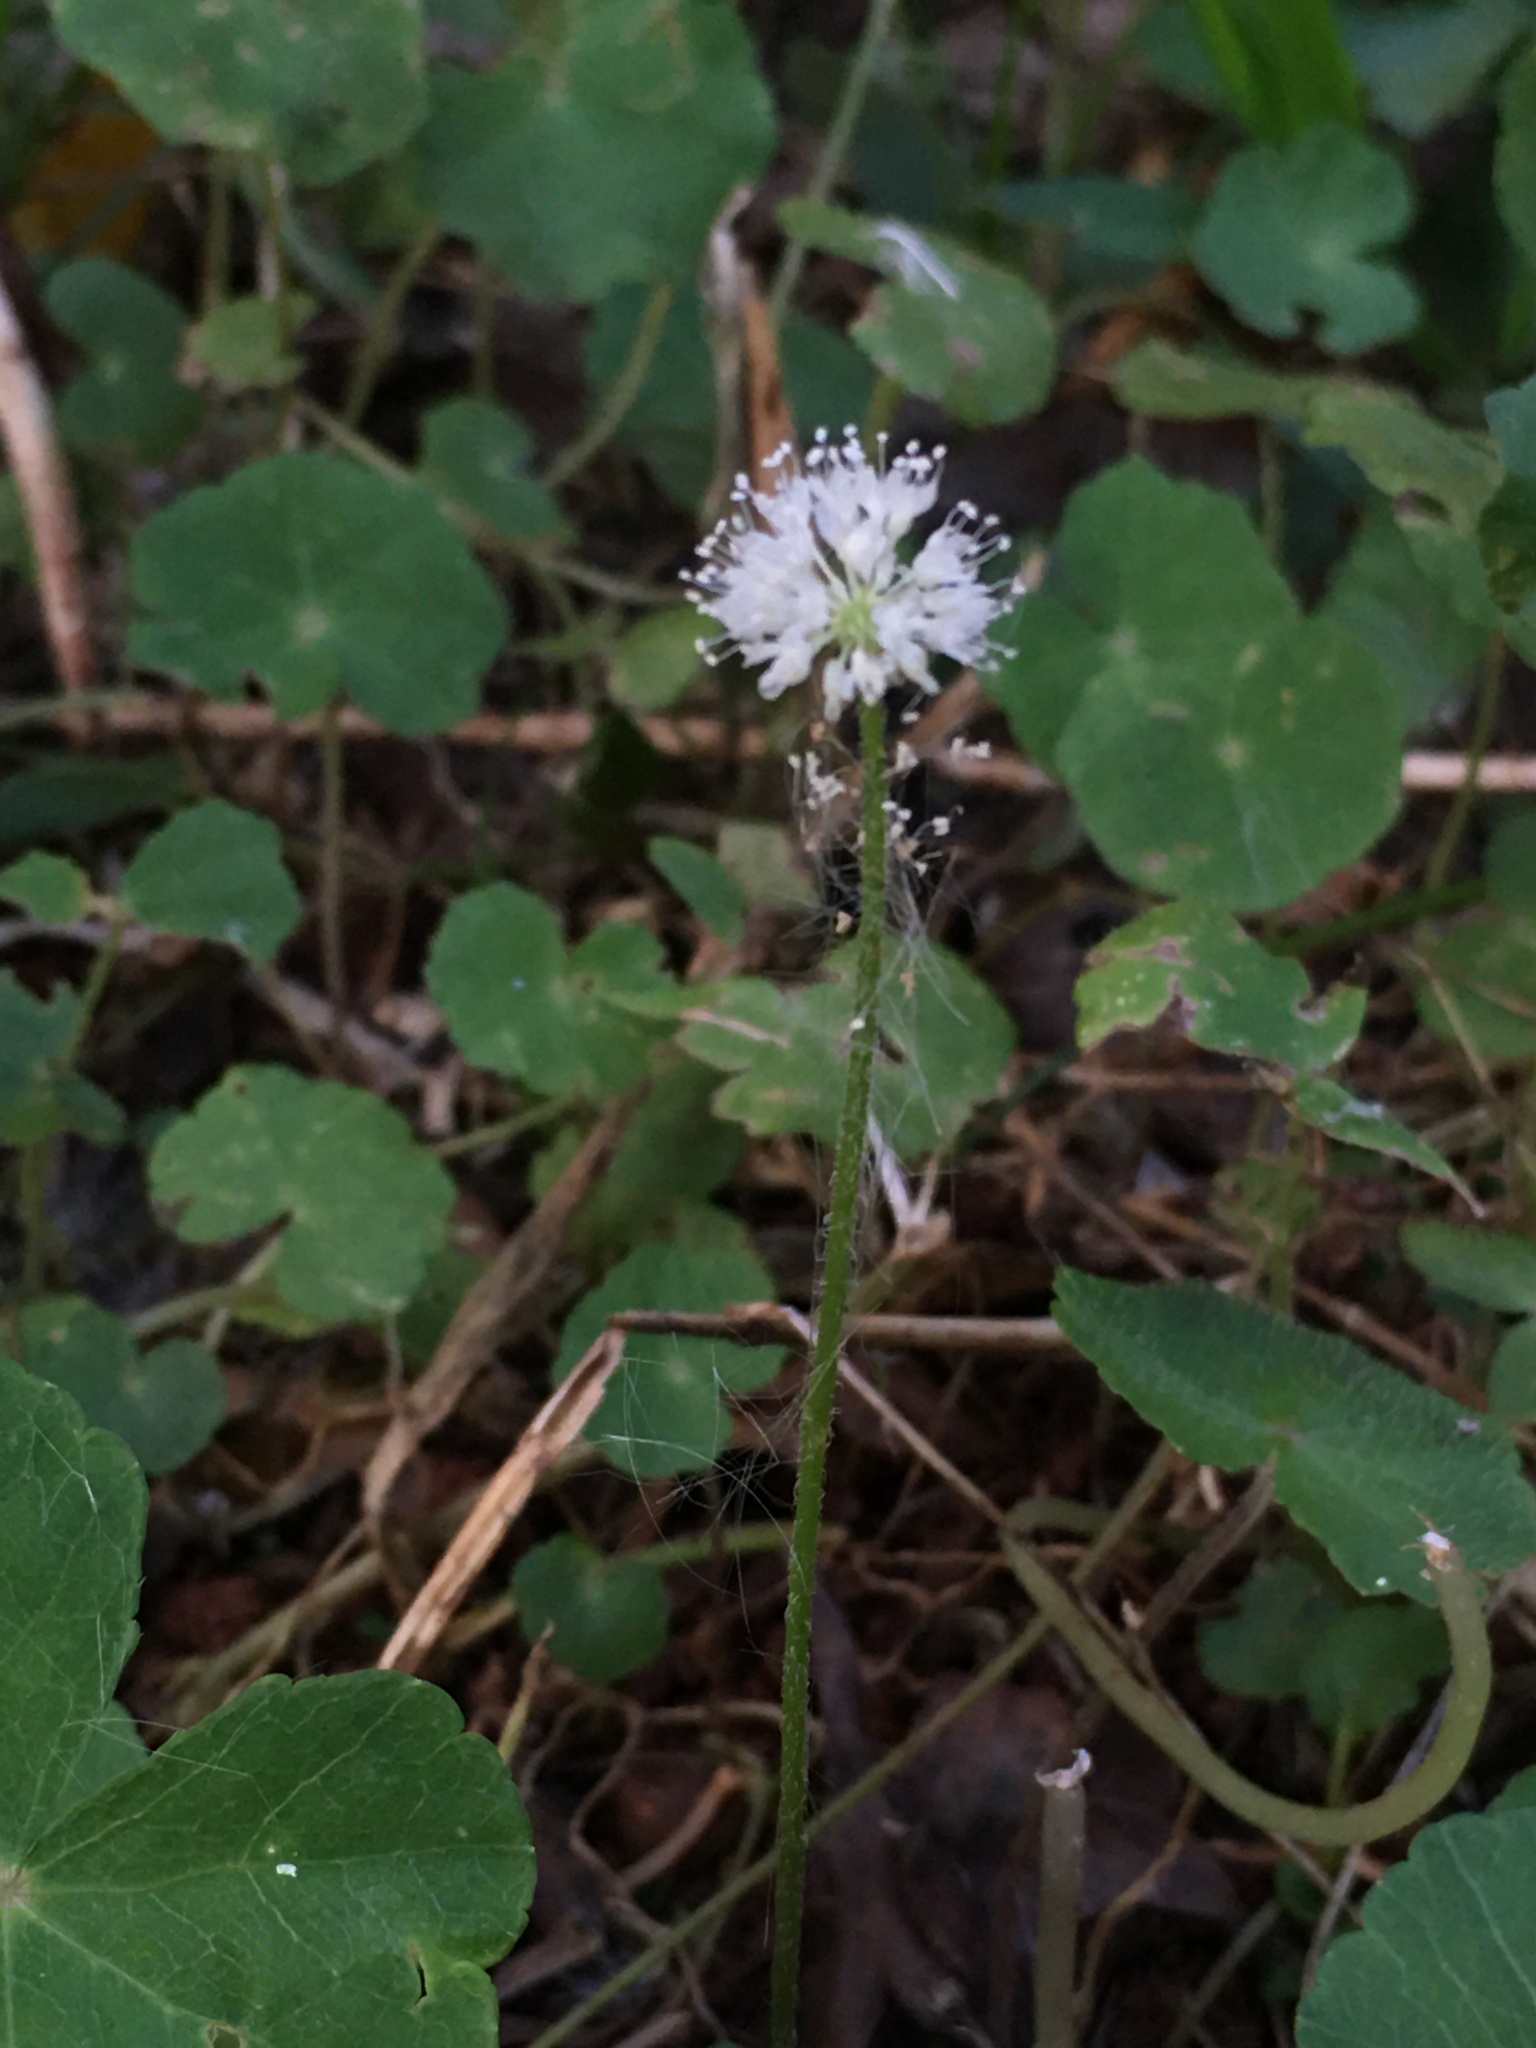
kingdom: Plantae
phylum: Tracheophyta
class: Magnoliopsida
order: Apiales
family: Araliaceae
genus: Hydrocotyle
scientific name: Hydrocotyle leucocephala
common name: Brazilian pennywort
